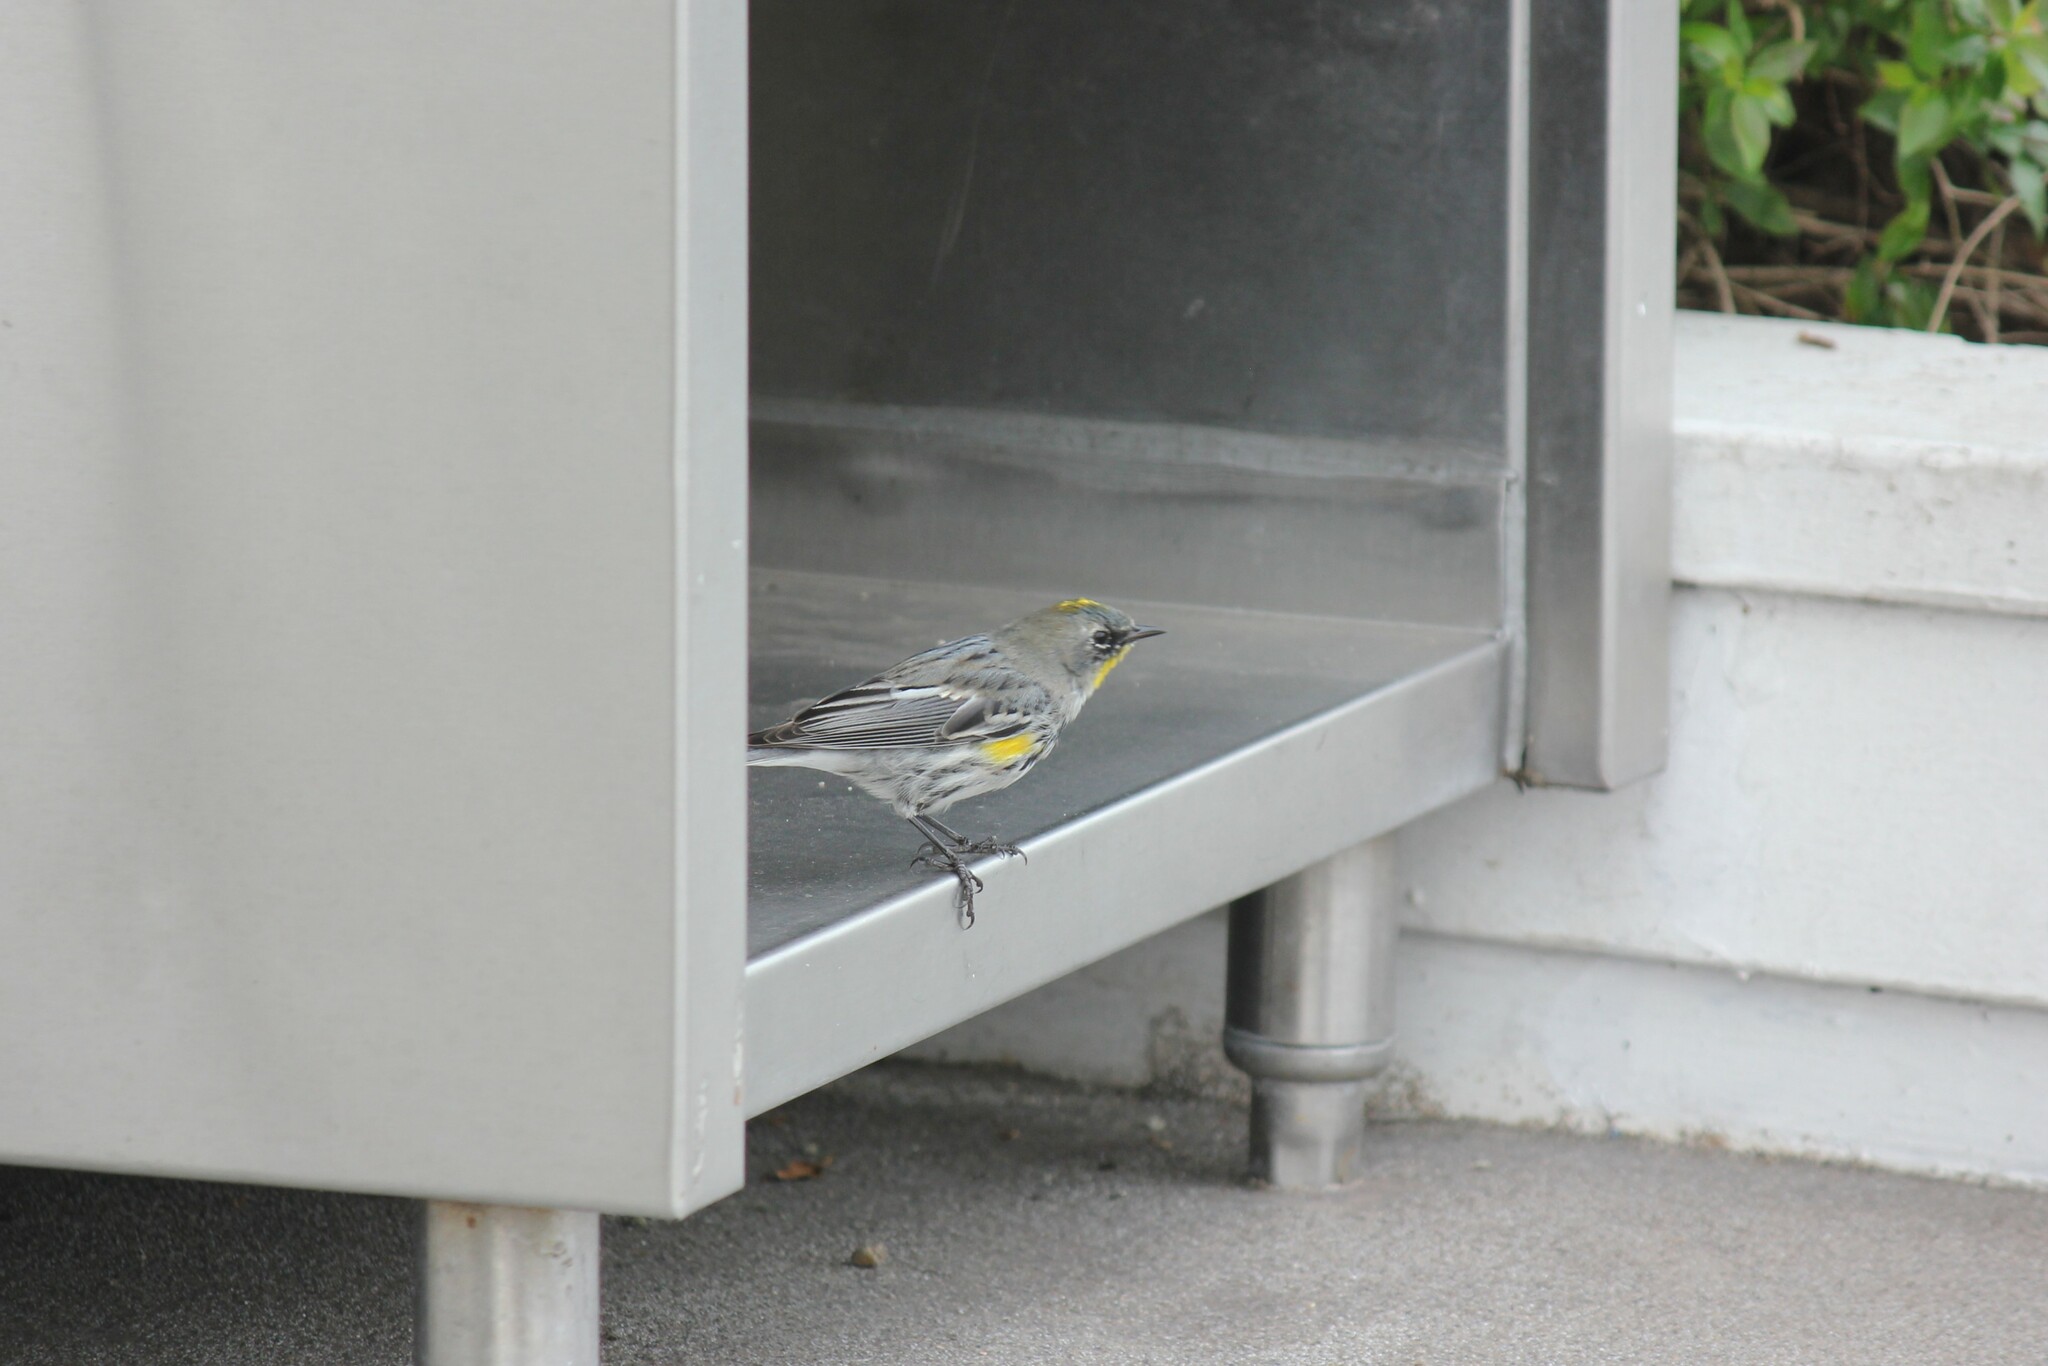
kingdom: Animalia
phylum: Chordata
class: Aves
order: Passeriformes
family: Parulidae
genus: Setophaga
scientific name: Setophaga coronata
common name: Myrtle warbler
